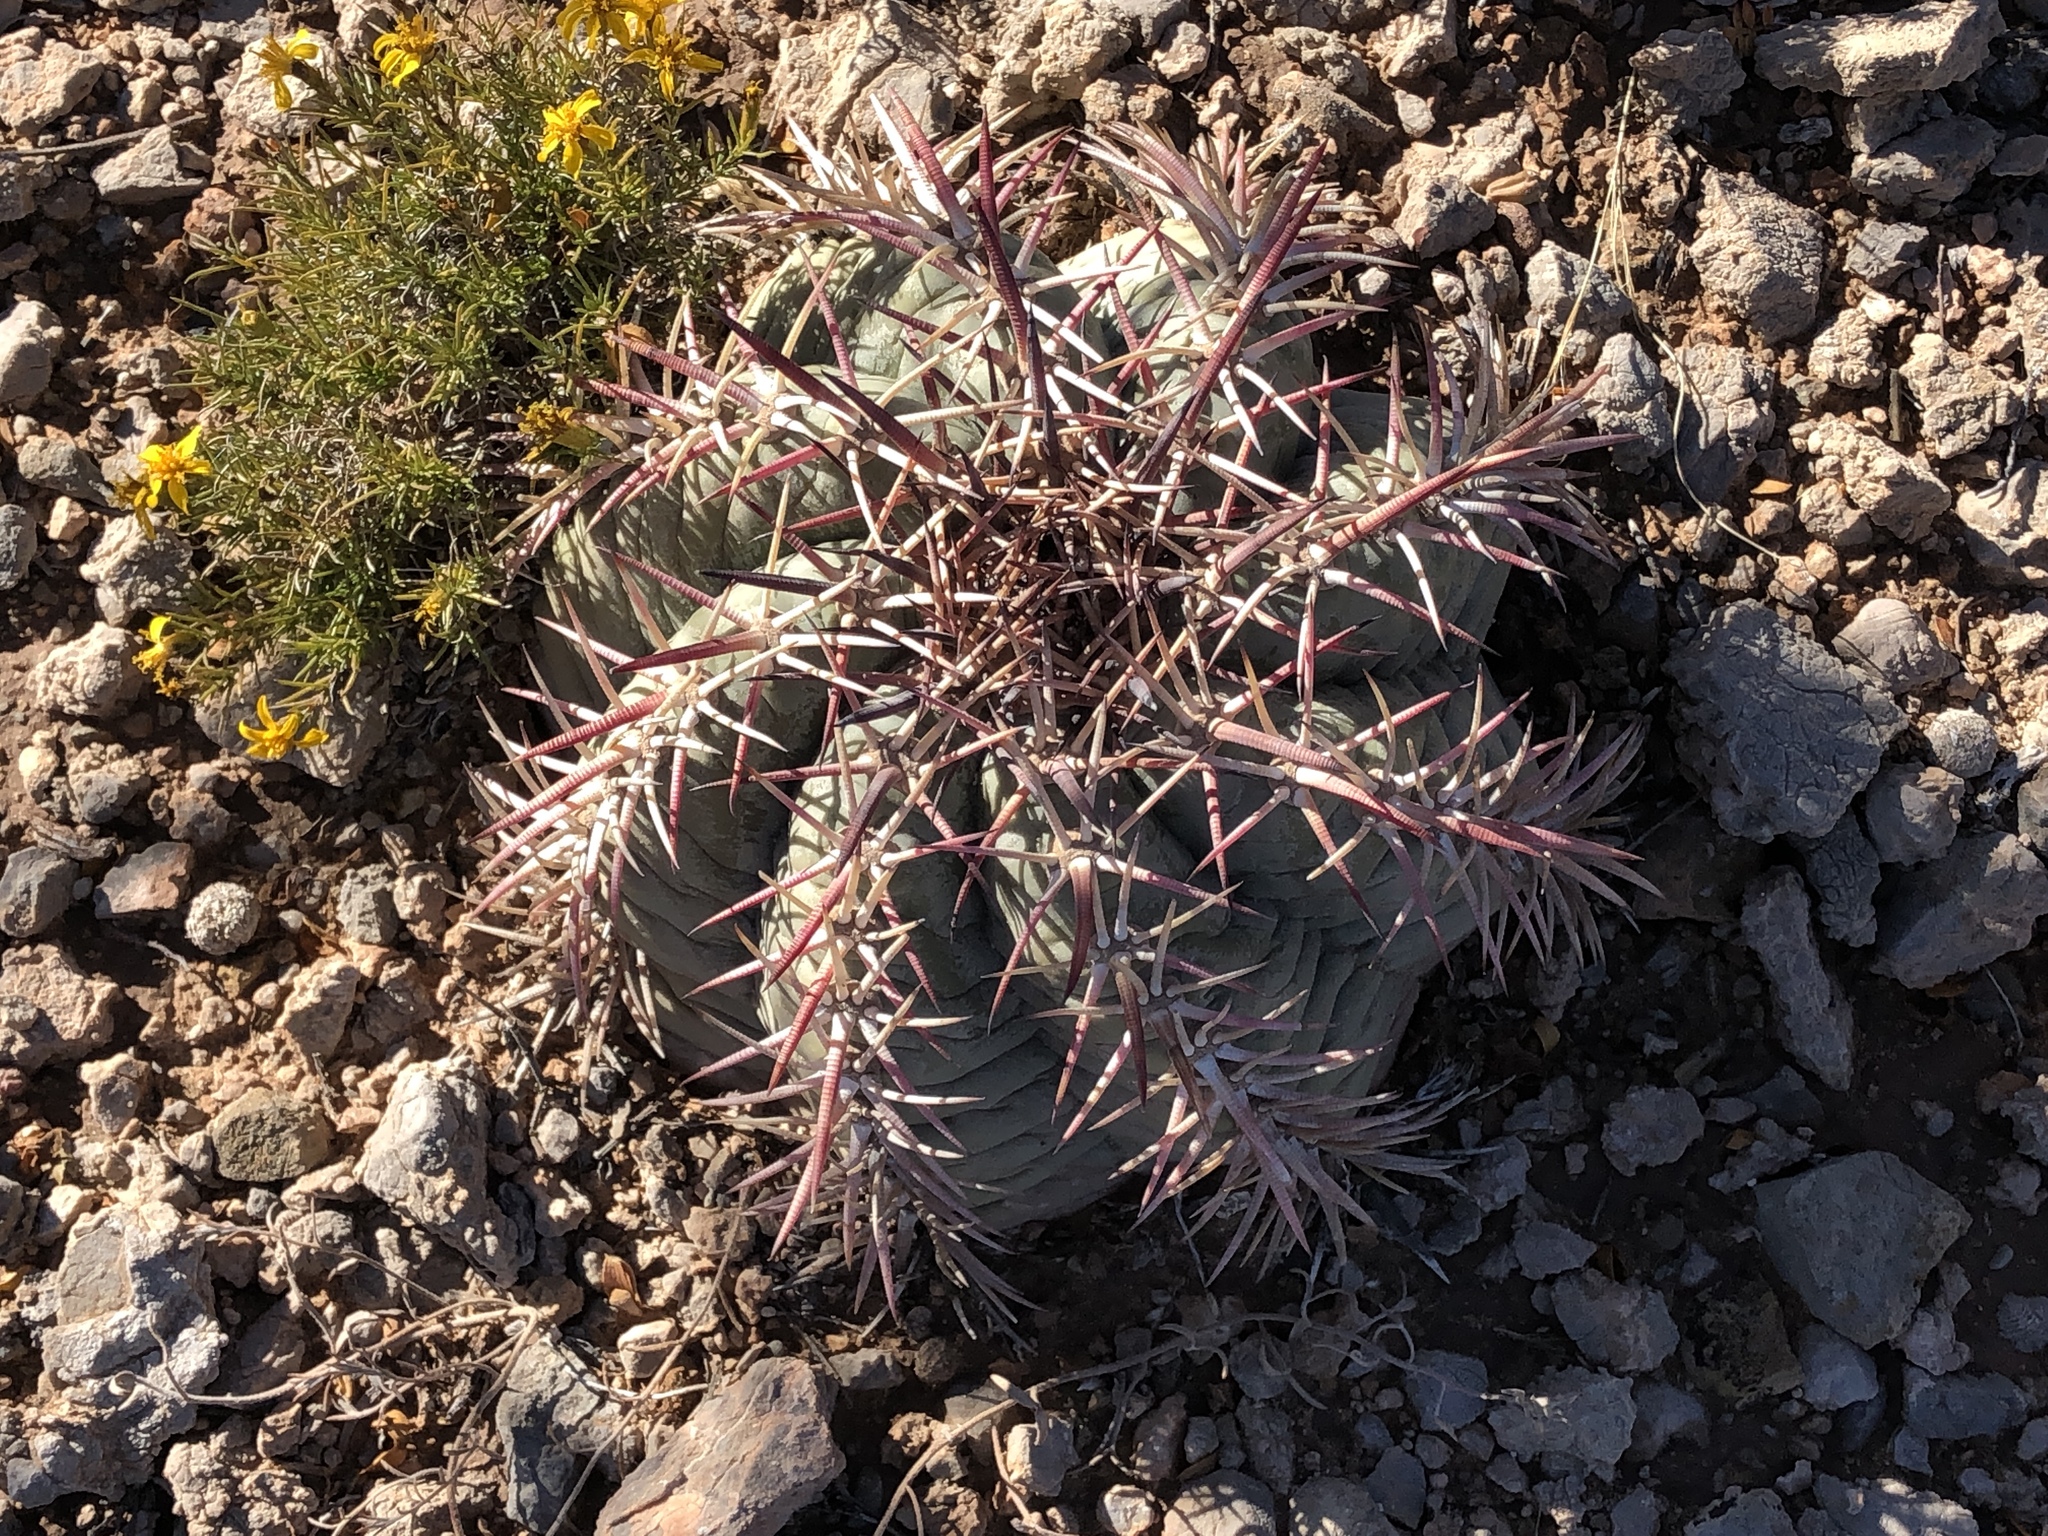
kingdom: Plantae
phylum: Tracheophyta
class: Magnoliopsida
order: Caryophyllales
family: Cactaceae
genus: Echinocactus
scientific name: Echinocactus horizonthalonius
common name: Devilshead
